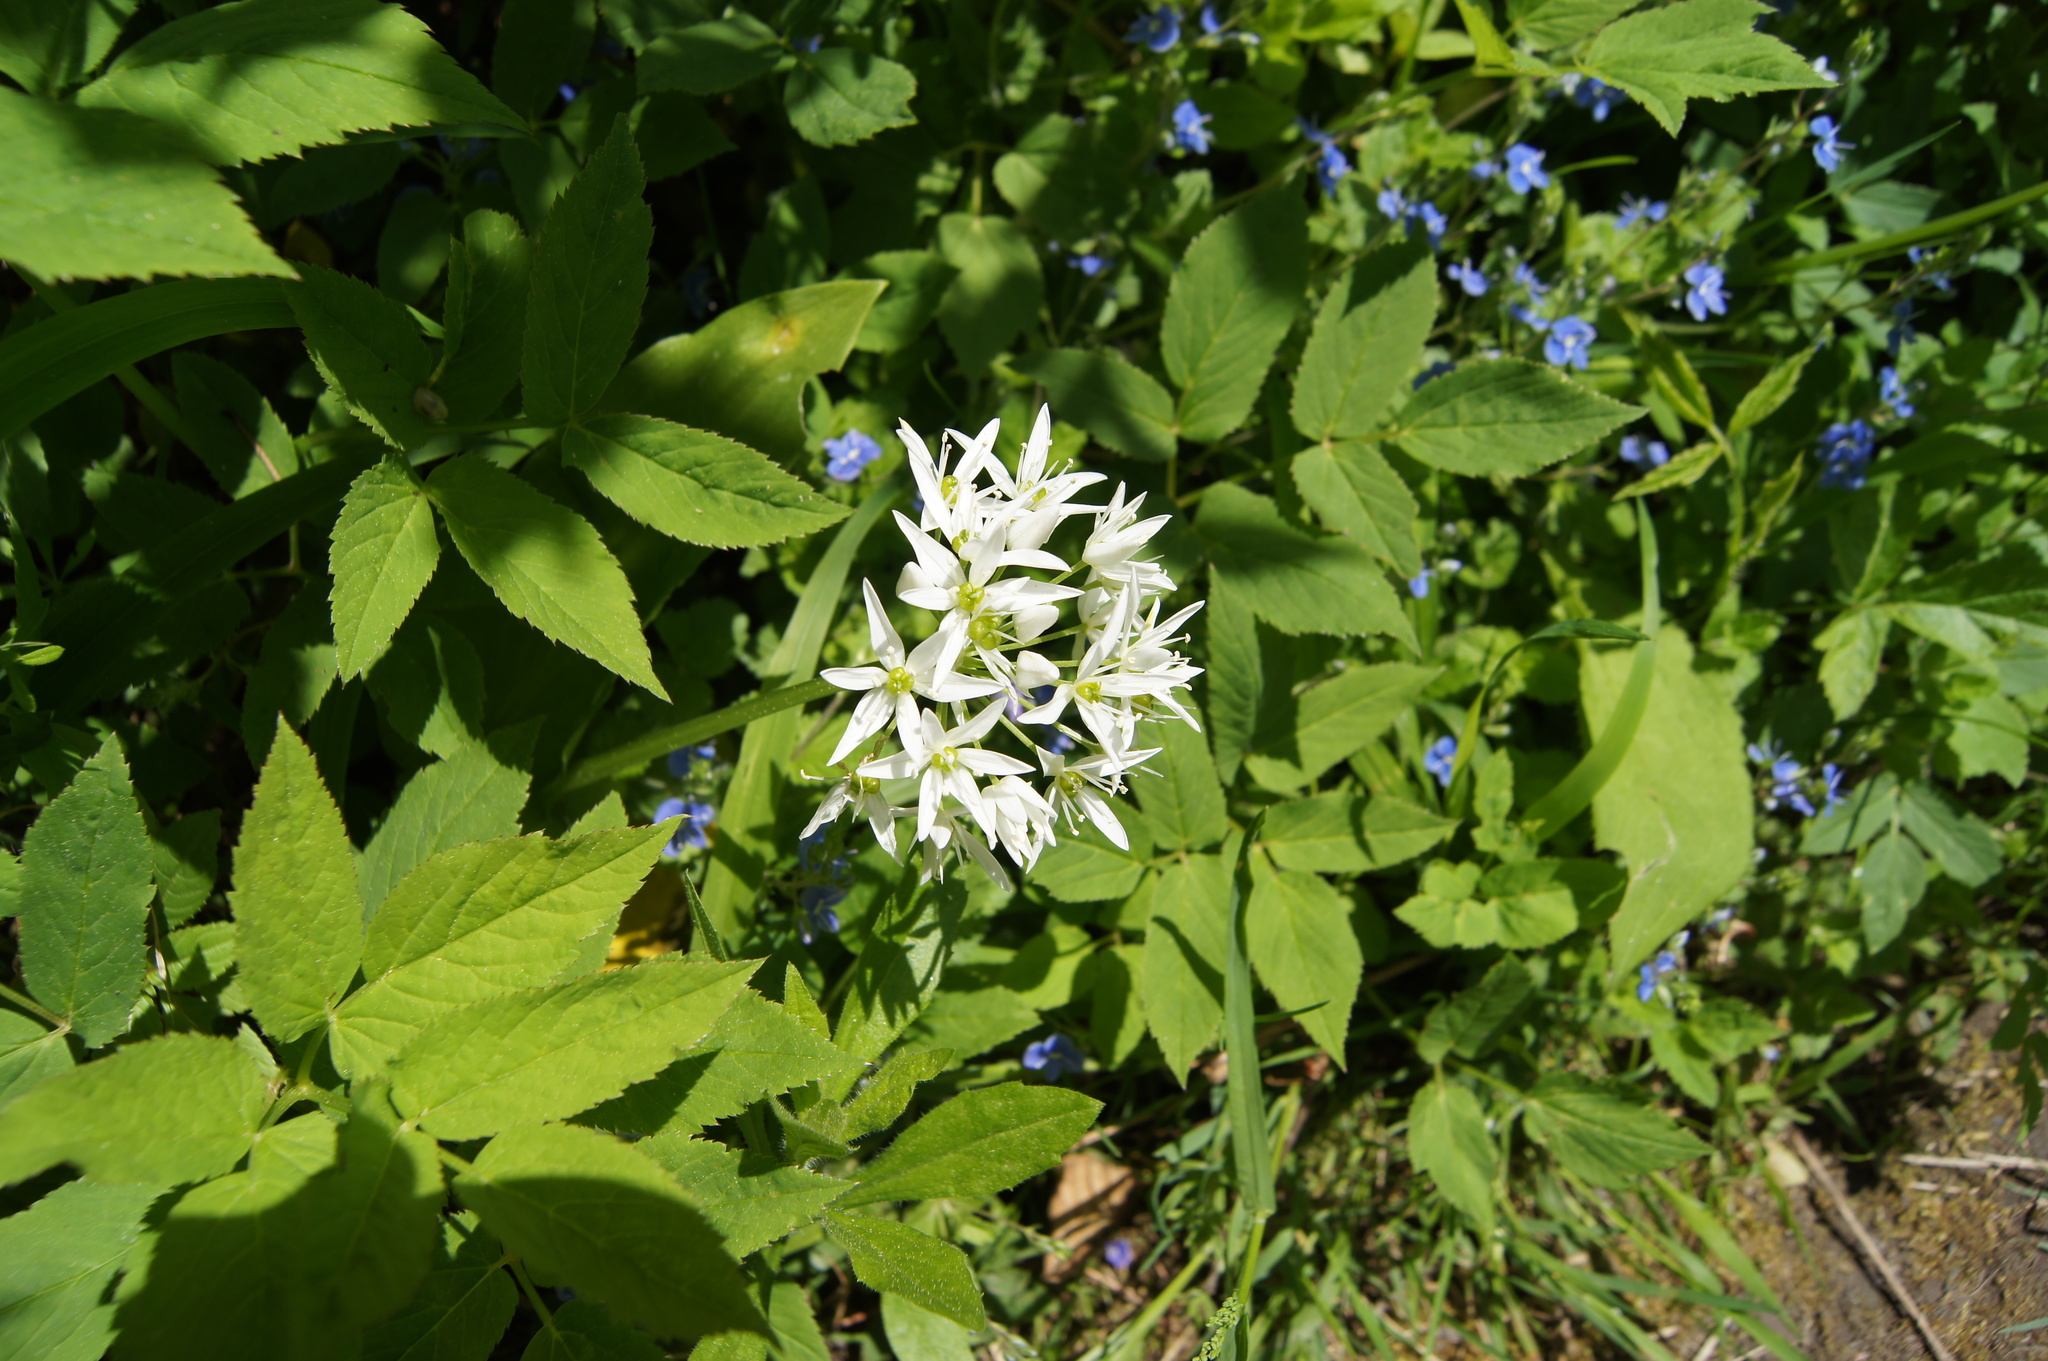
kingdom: Plantae
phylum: Tracheophyta
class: Liliopsida
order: Asparagales
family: Amaryllidaceae
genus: Allium
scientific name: Allium ursinum
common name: Ramsons
